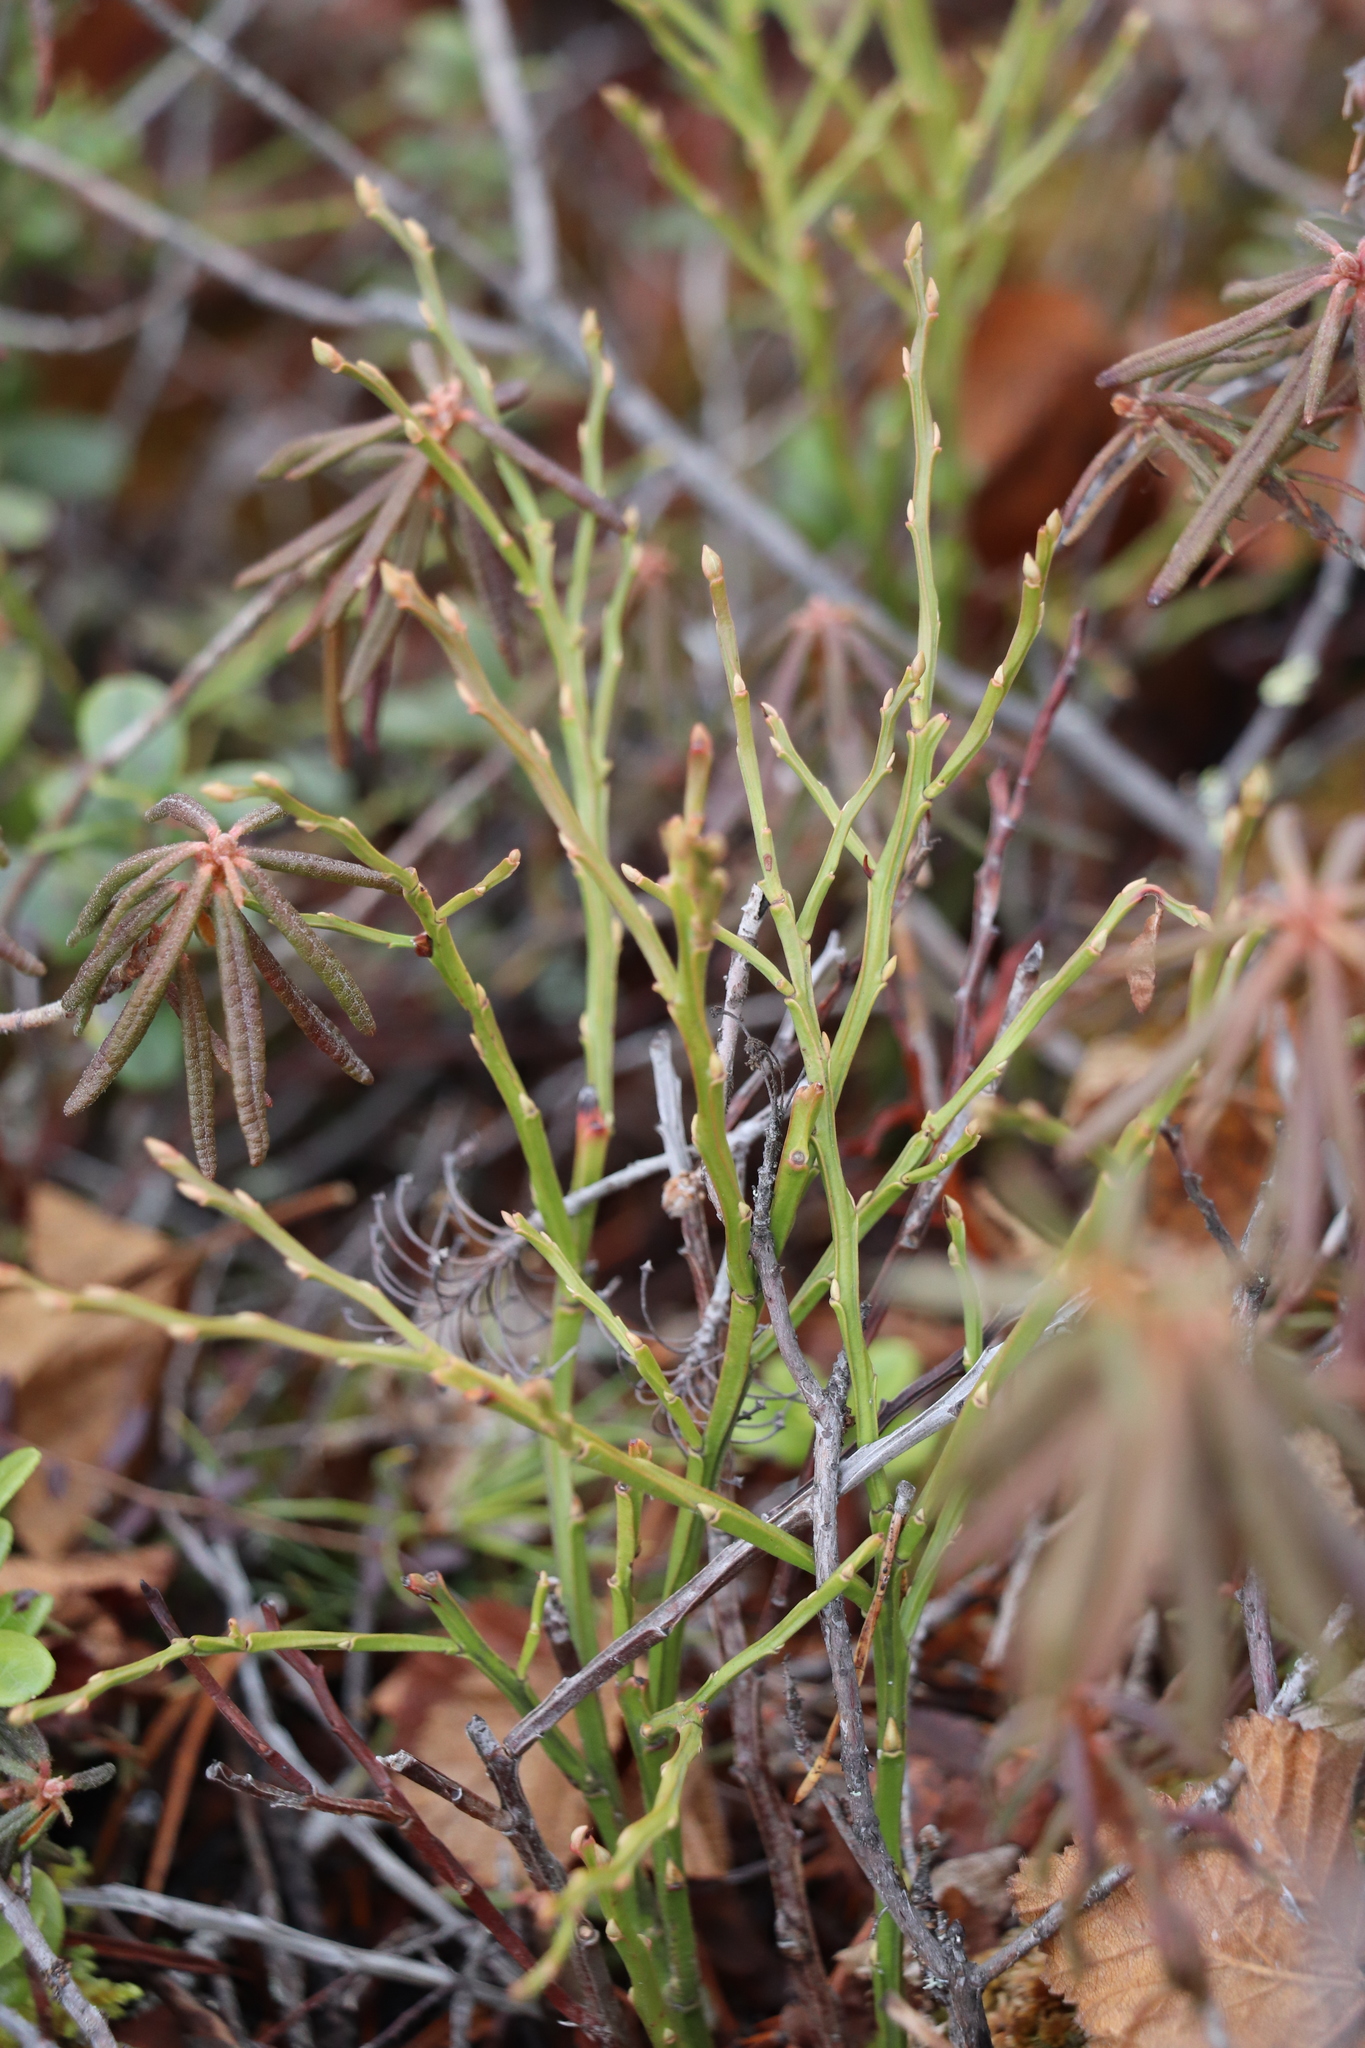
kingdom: Plantae
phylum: Tracheophyta
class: Magnoliopsida
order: Ericales
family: Ericaceae
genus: Vaccinium
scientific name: Vaccinium uliginosum
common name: Bog bilberry
